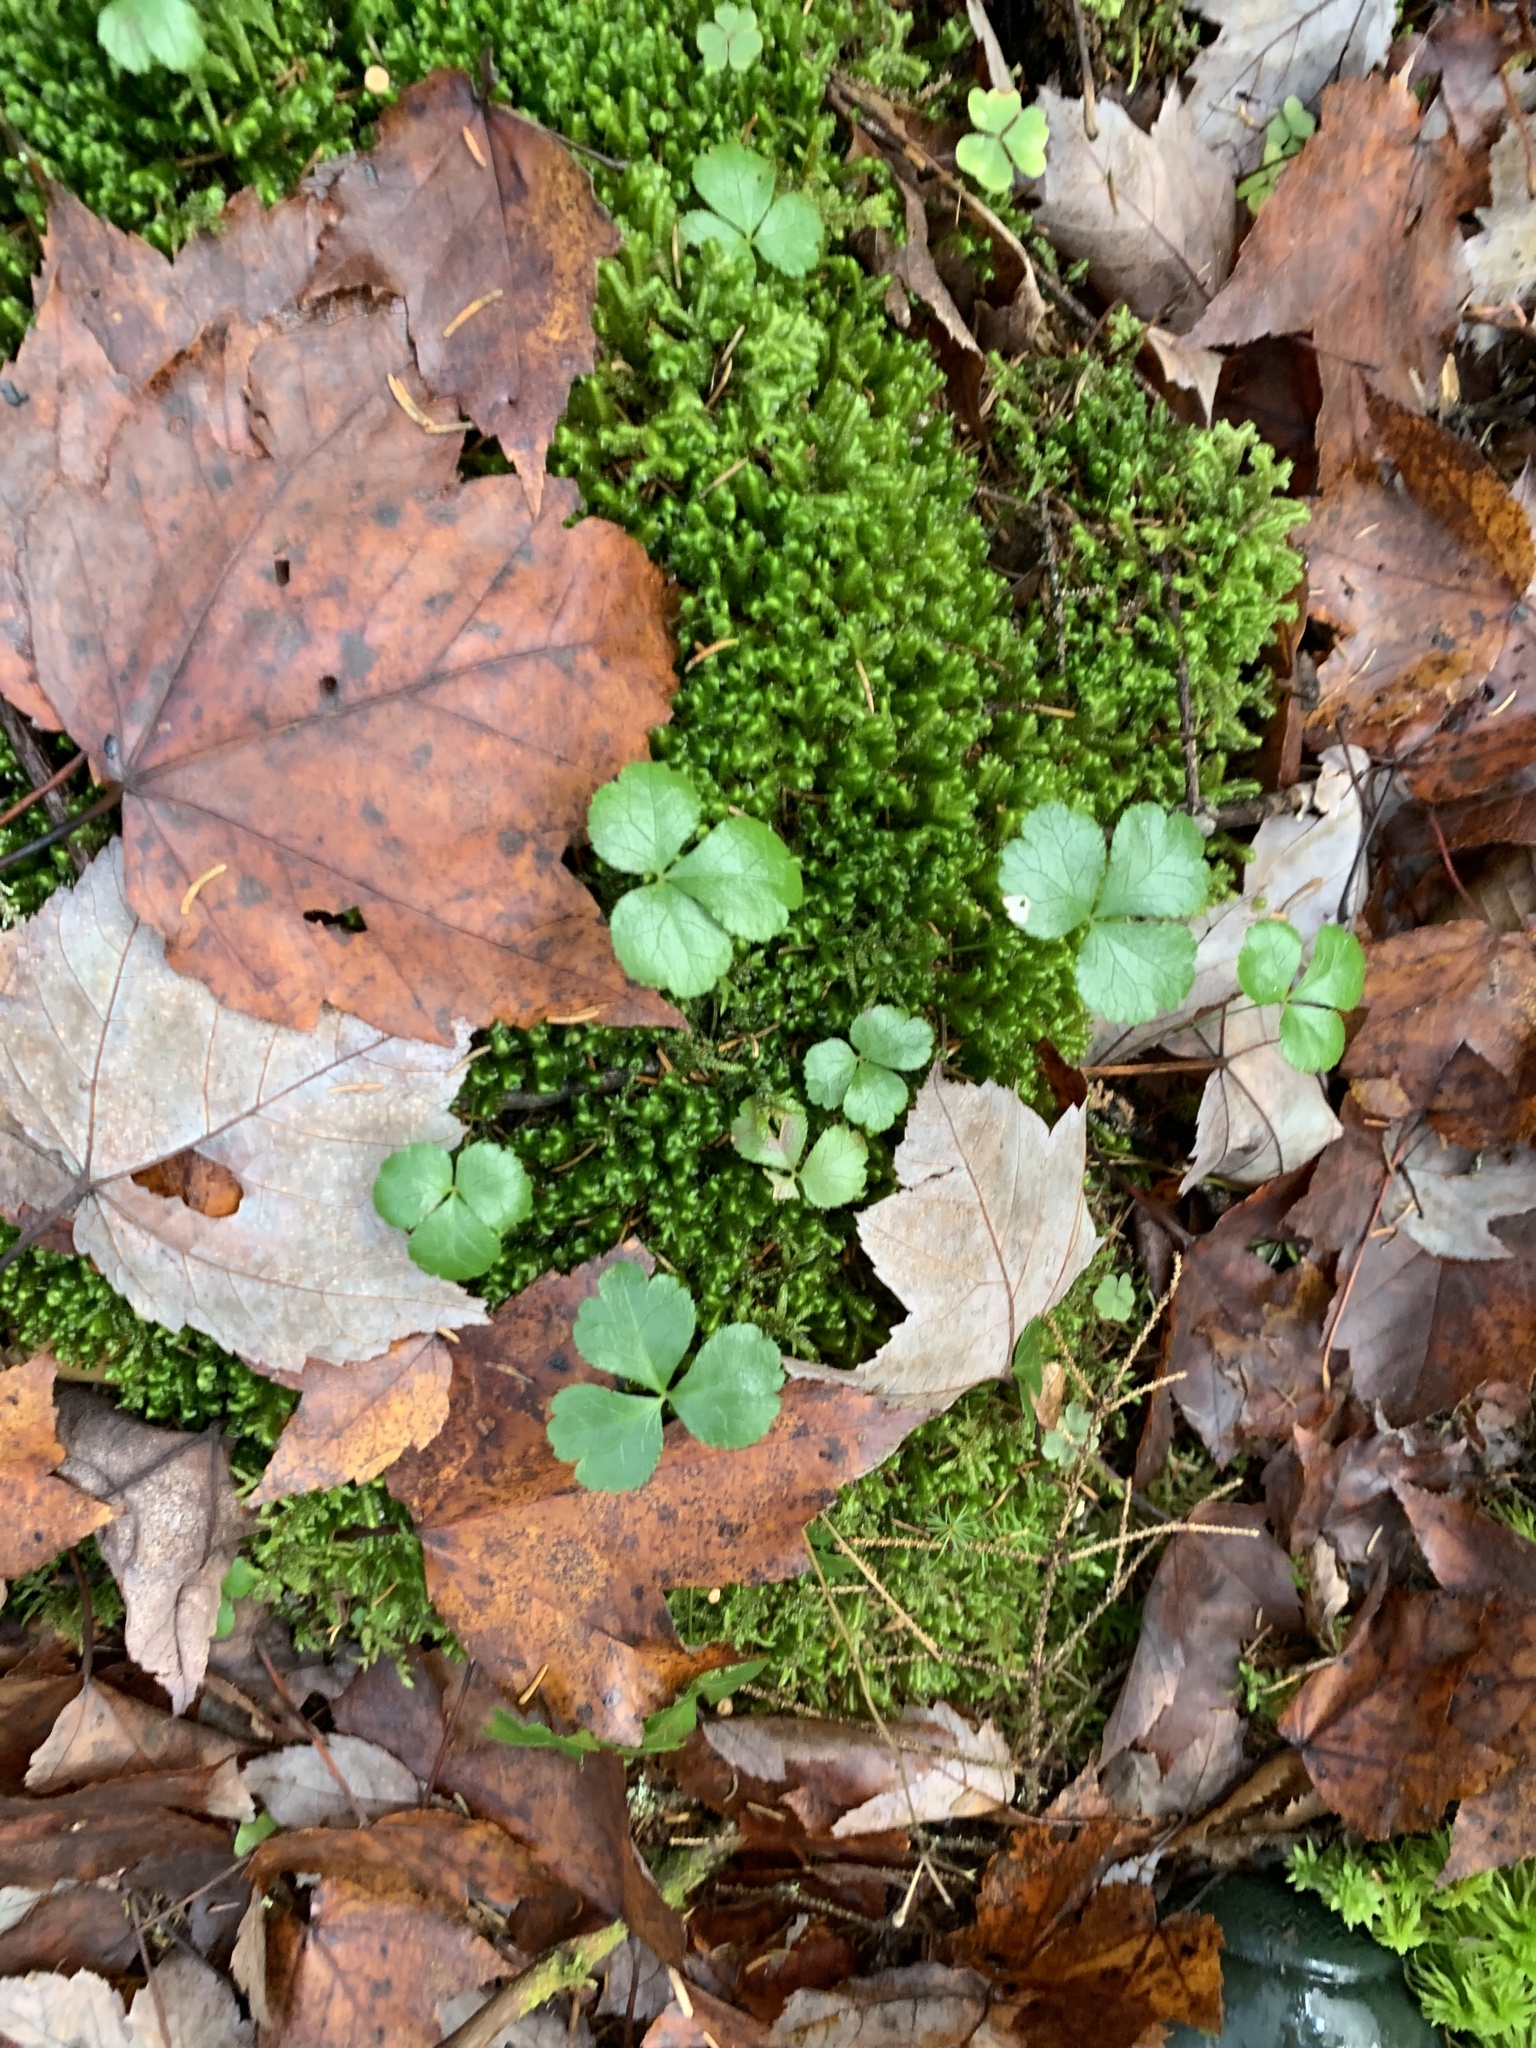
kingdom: Plantae
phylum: Tracheophyta
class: Magnoliopsida
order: Ranunculales
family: Ranunculaceae
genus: Coptis
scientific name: Coptis trifolia
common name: Canker-root
